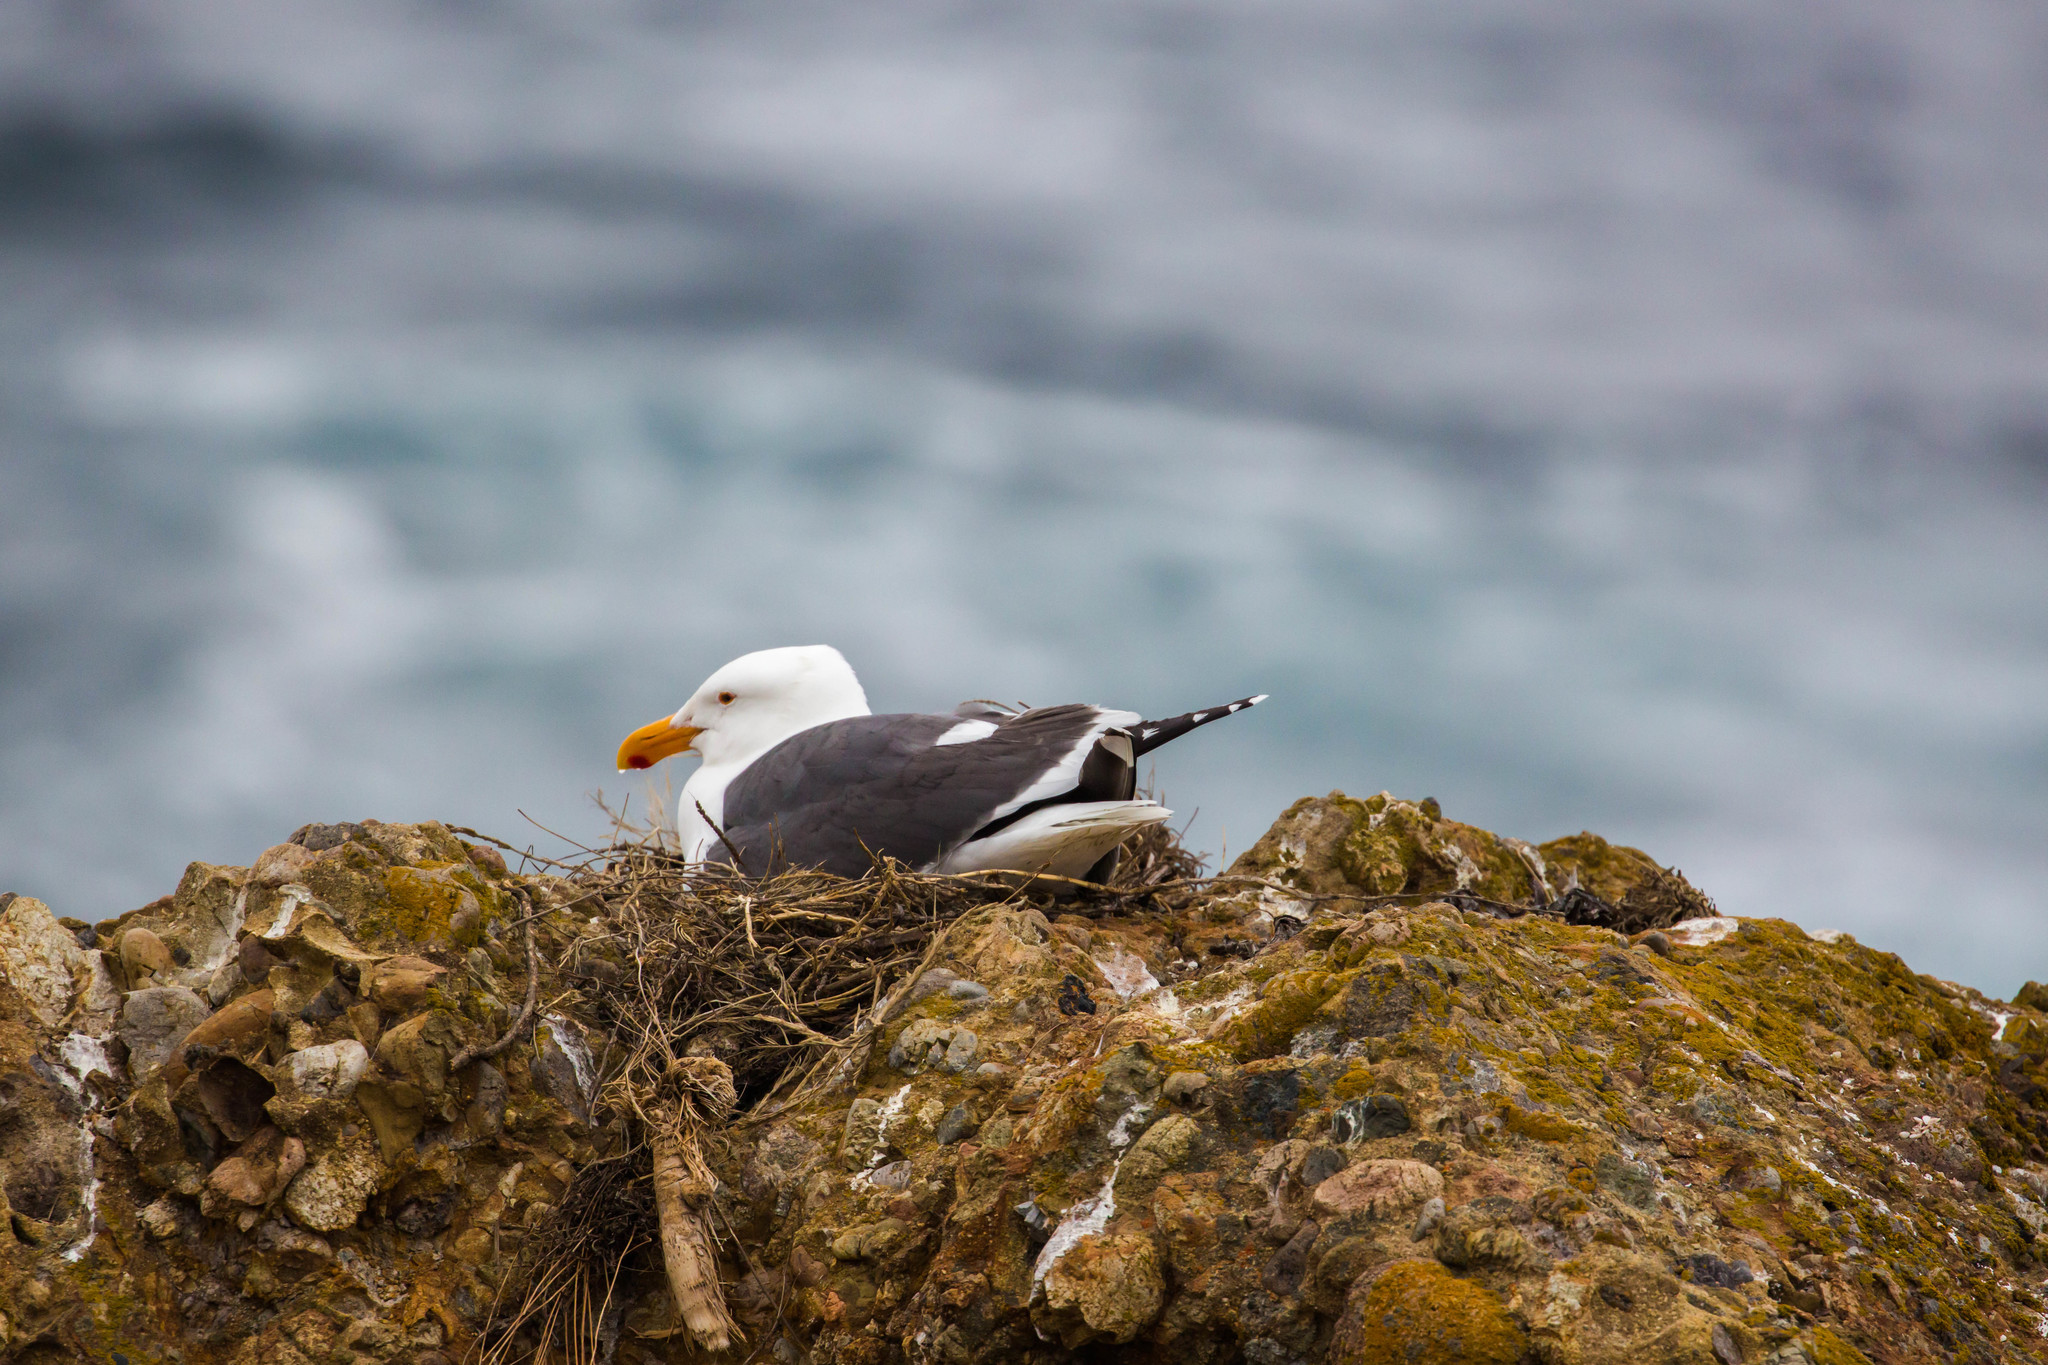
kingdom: Animalia
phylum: Chordata
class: Aves
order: Charadriiformes
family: Laridae
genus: Larus
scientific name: Larus occidentalis
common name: Western gull
